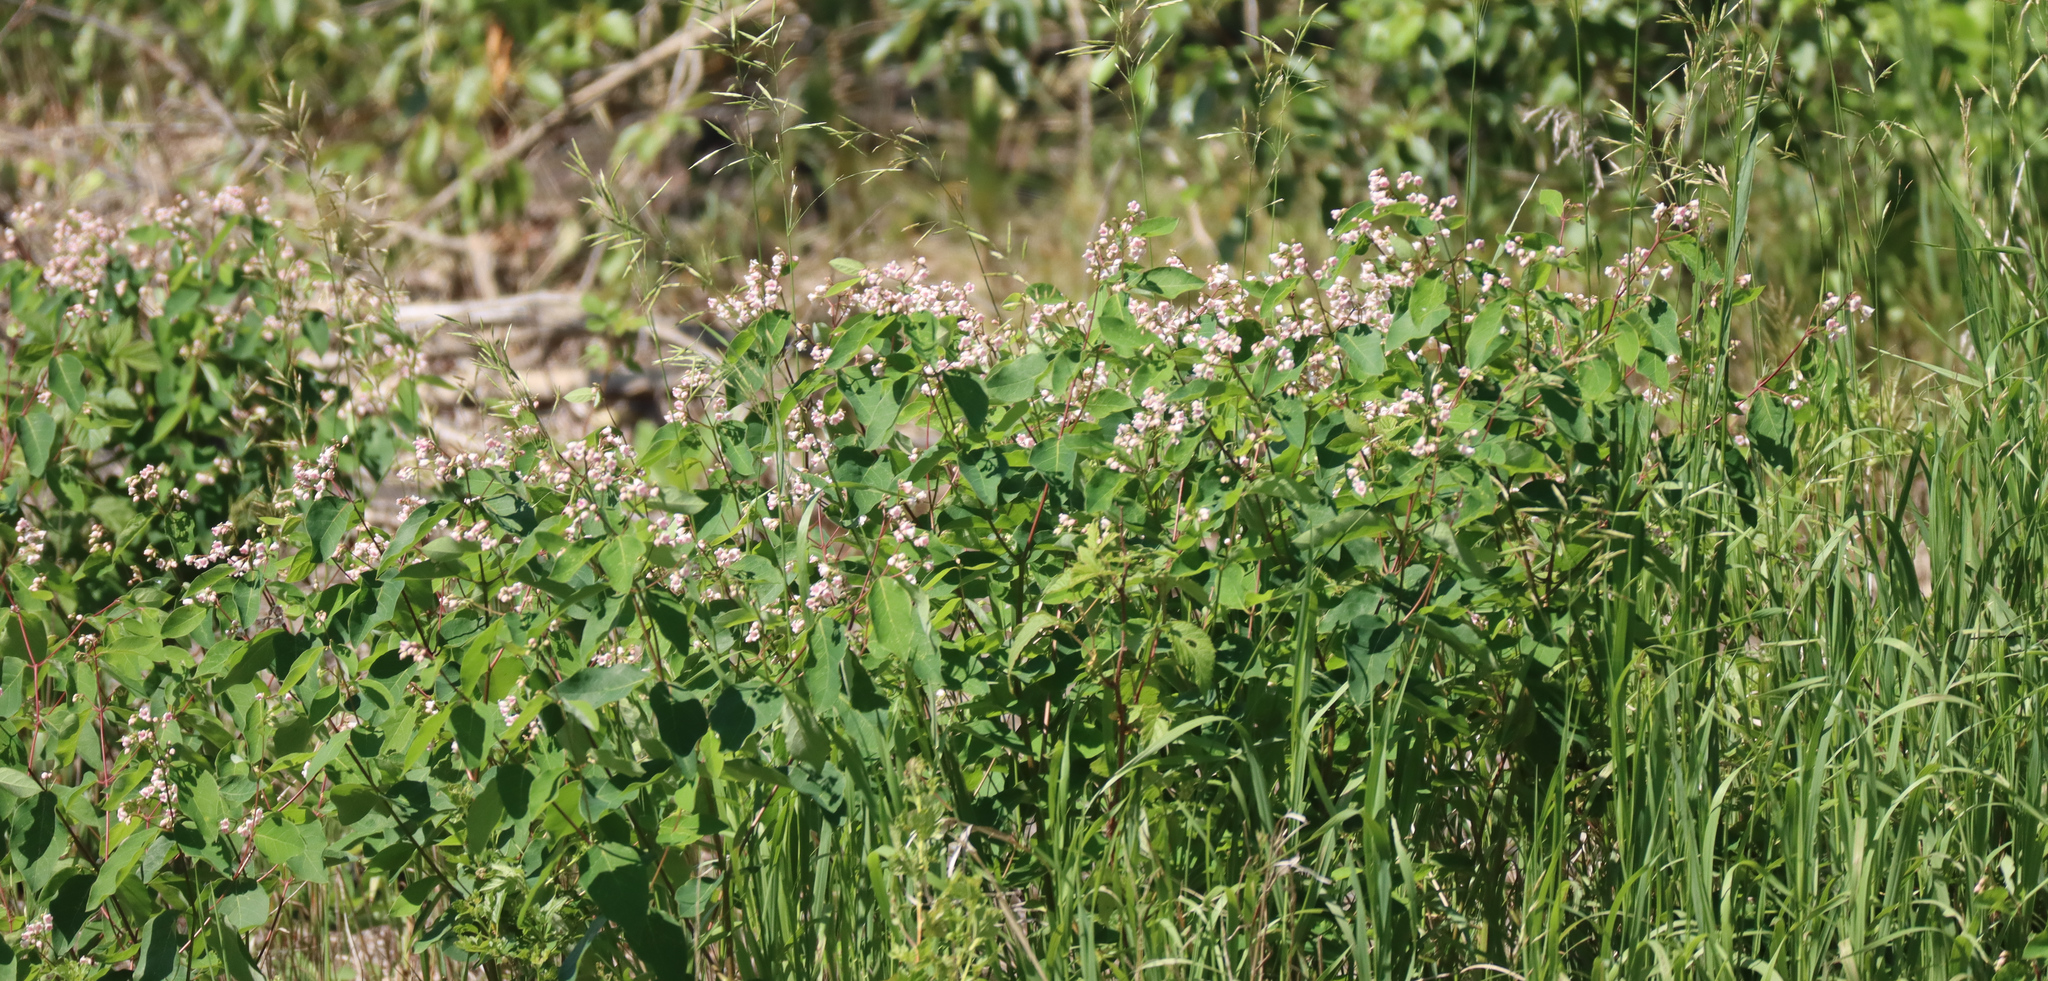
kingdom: Plantae
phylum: Tracheophyta
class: Magnoliopsida
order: Gentianales
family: Apocynaceae
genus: Apocynum
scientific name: Apocynum androsaemifolium
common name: Spreading dogbane
